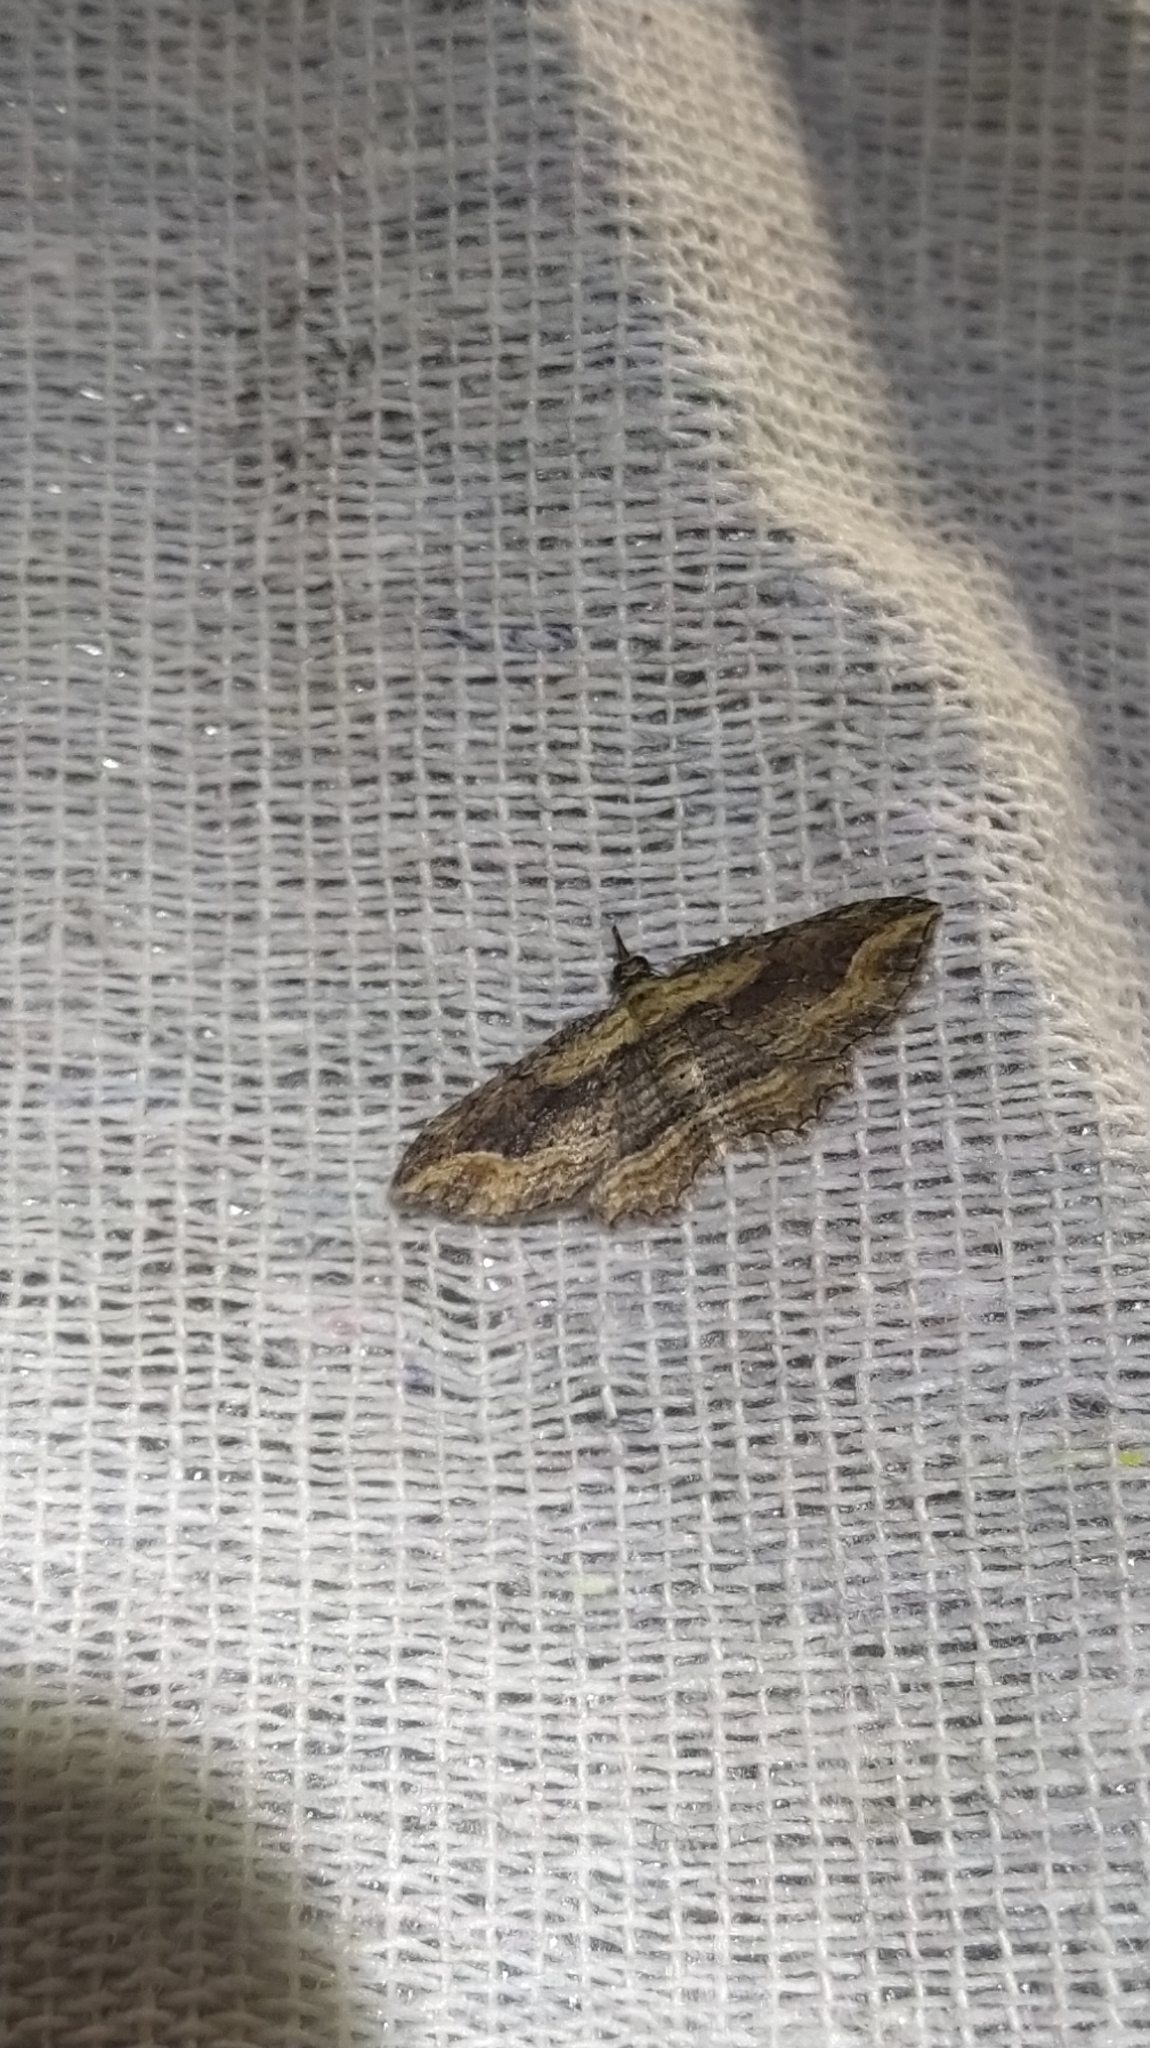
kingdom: Animalia
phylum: Arthropoda
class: Insecta
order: Lepidoptera
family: Geometridae
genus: Chloroclystis
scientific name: Chloroclystis filata
